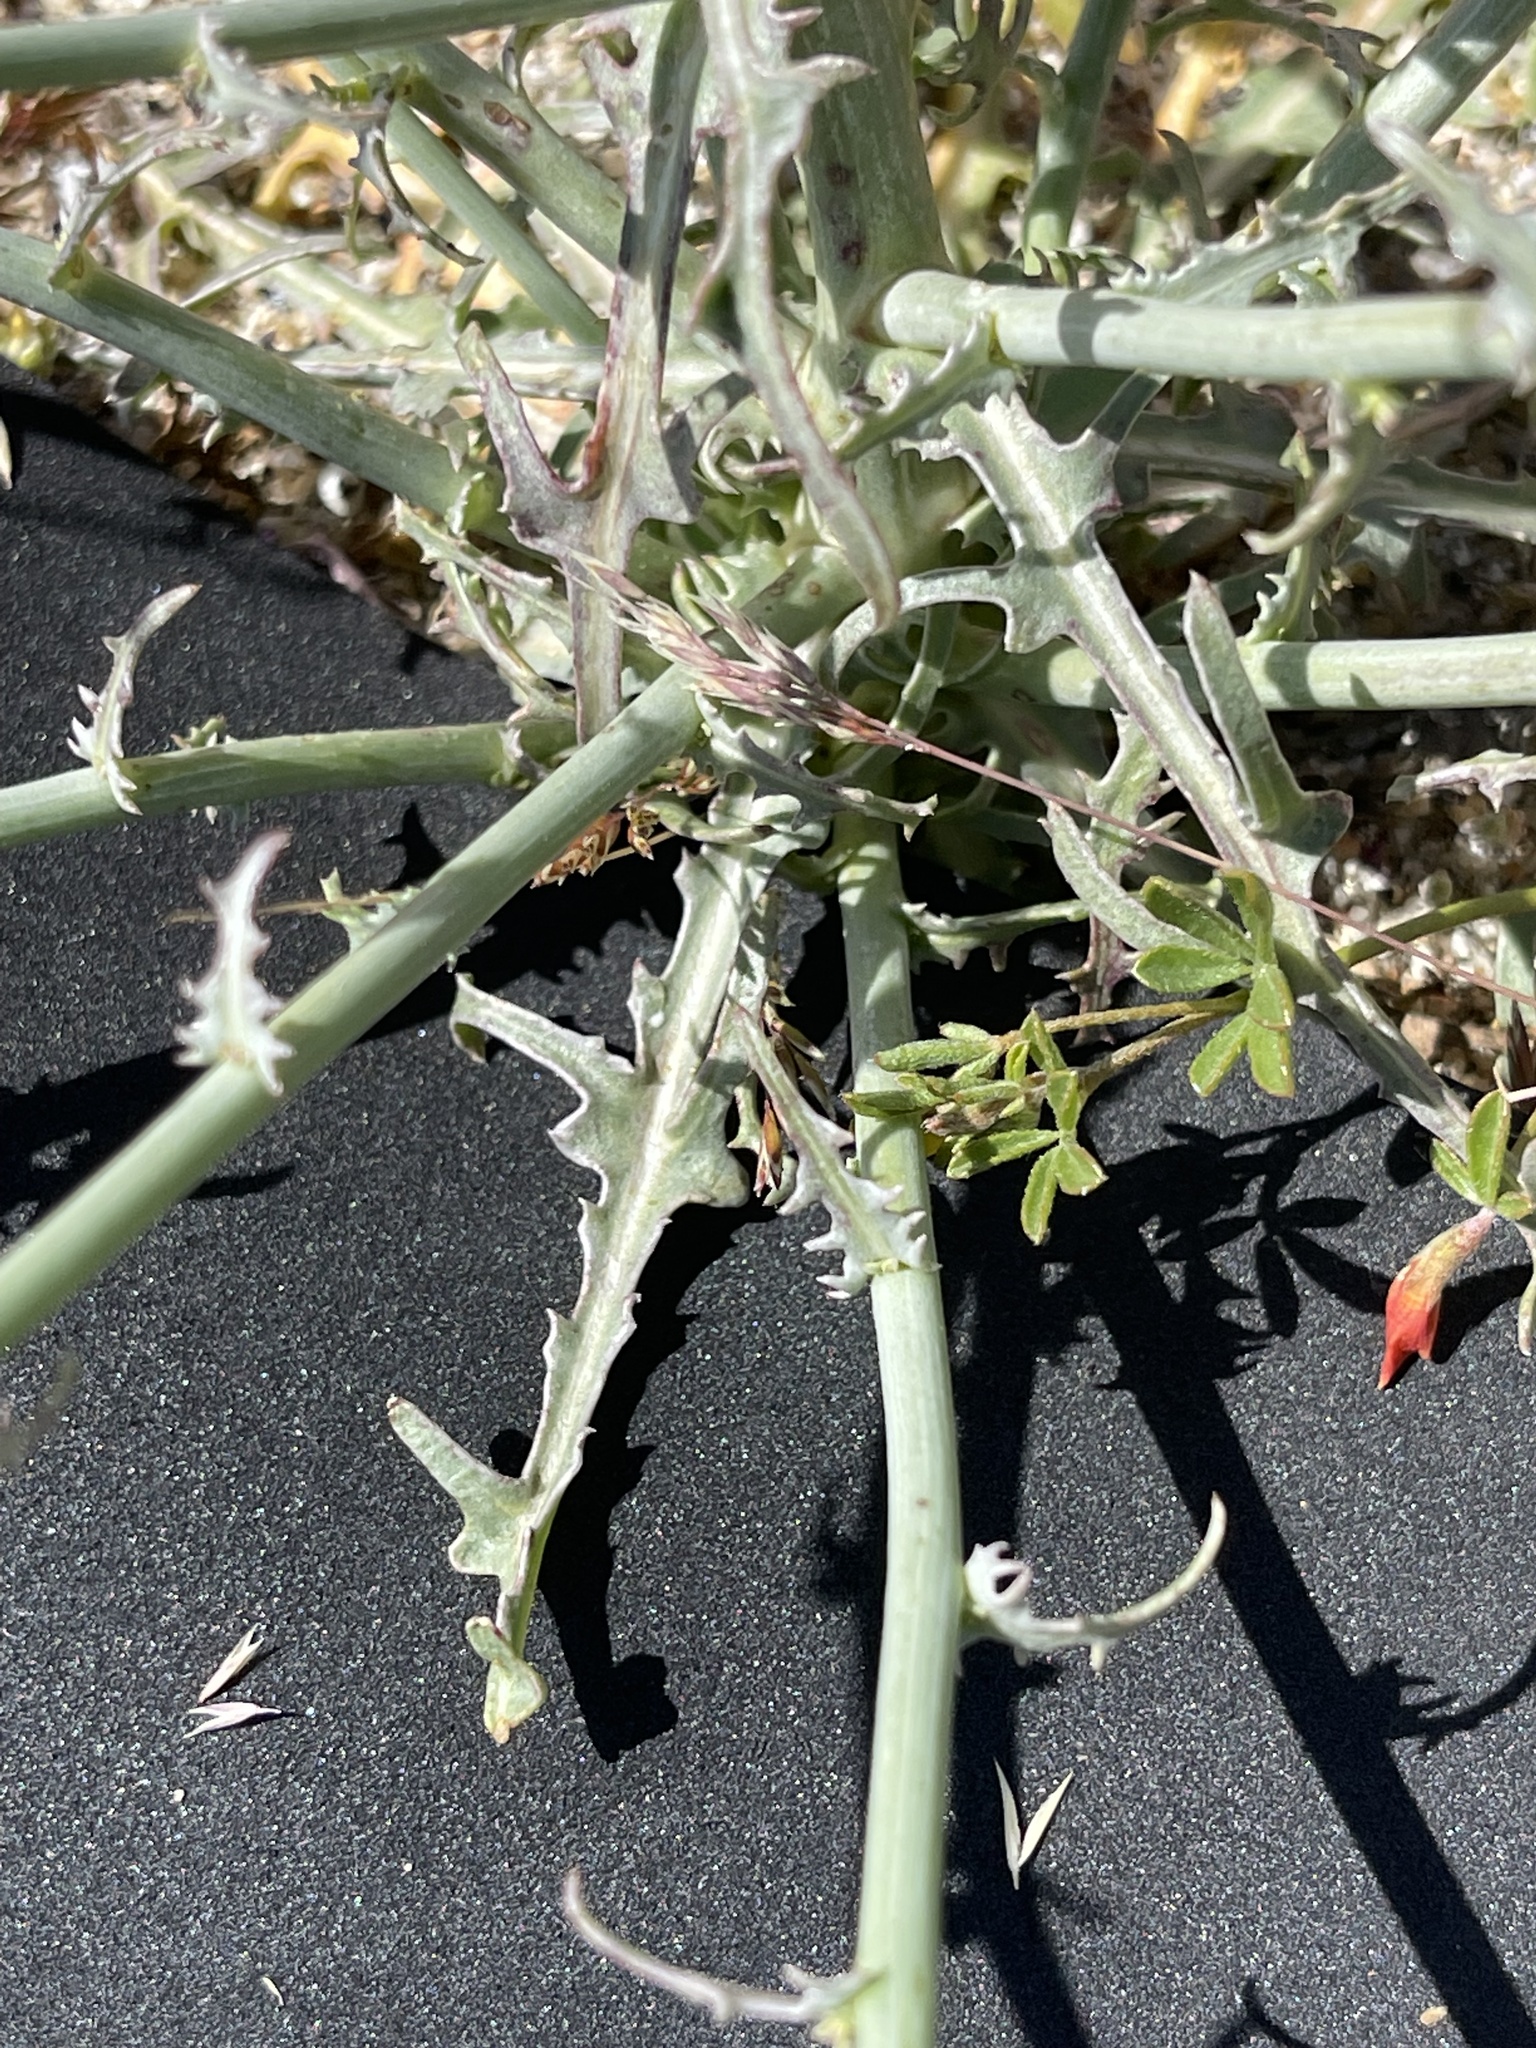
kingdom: Plantae
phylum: Tracheophyta
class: Magnoliopsida
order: Asterales
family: Asteraceae
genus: Stephanomeria
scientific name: Stephanomeria exigua
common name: Small wirelettuce
